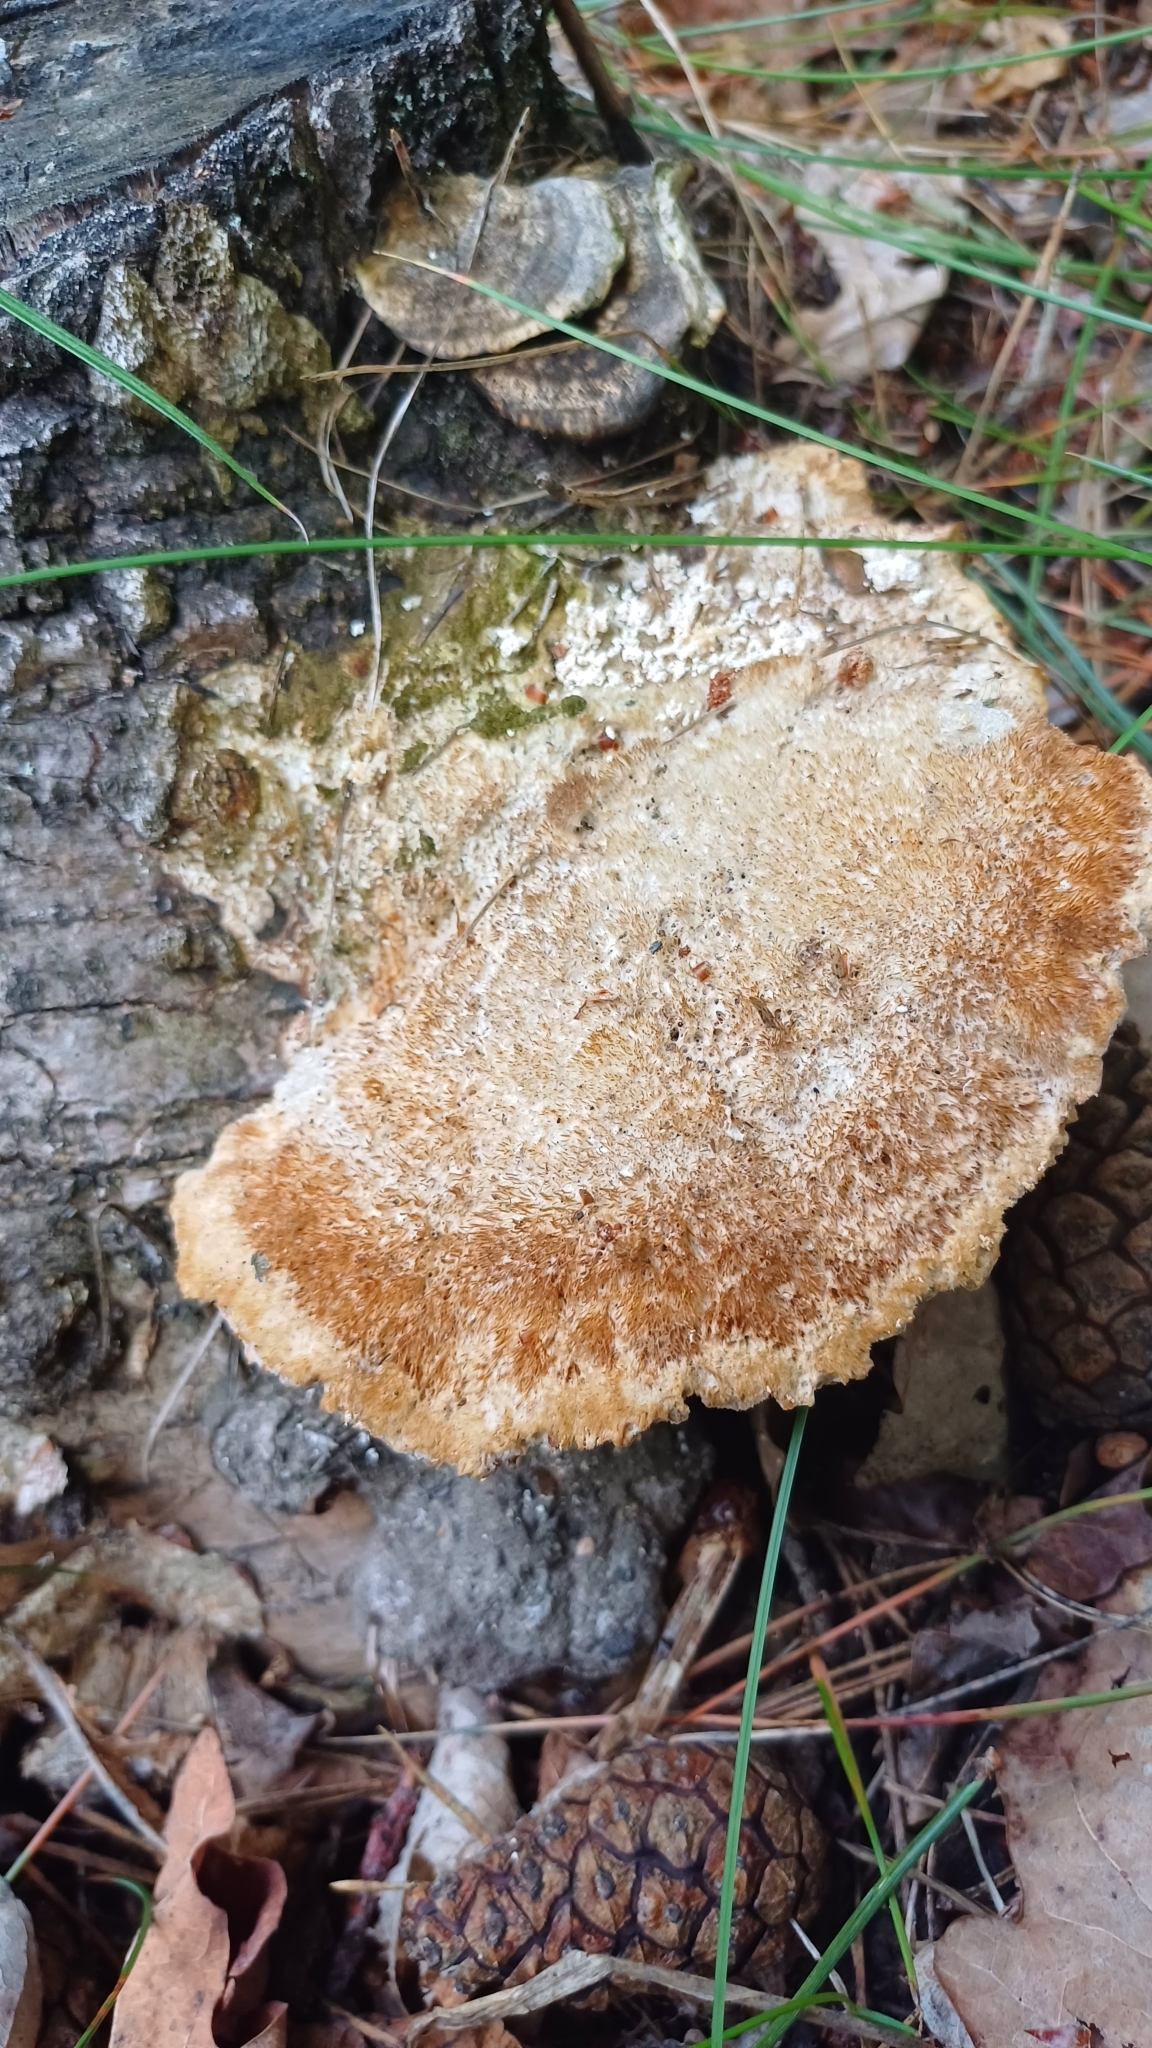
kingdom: Fungi
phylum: Basidiomycota
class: Agaricomycetes
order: Polyporales
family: Polyporaceae
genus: Trametes
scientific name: Trametes trogii
